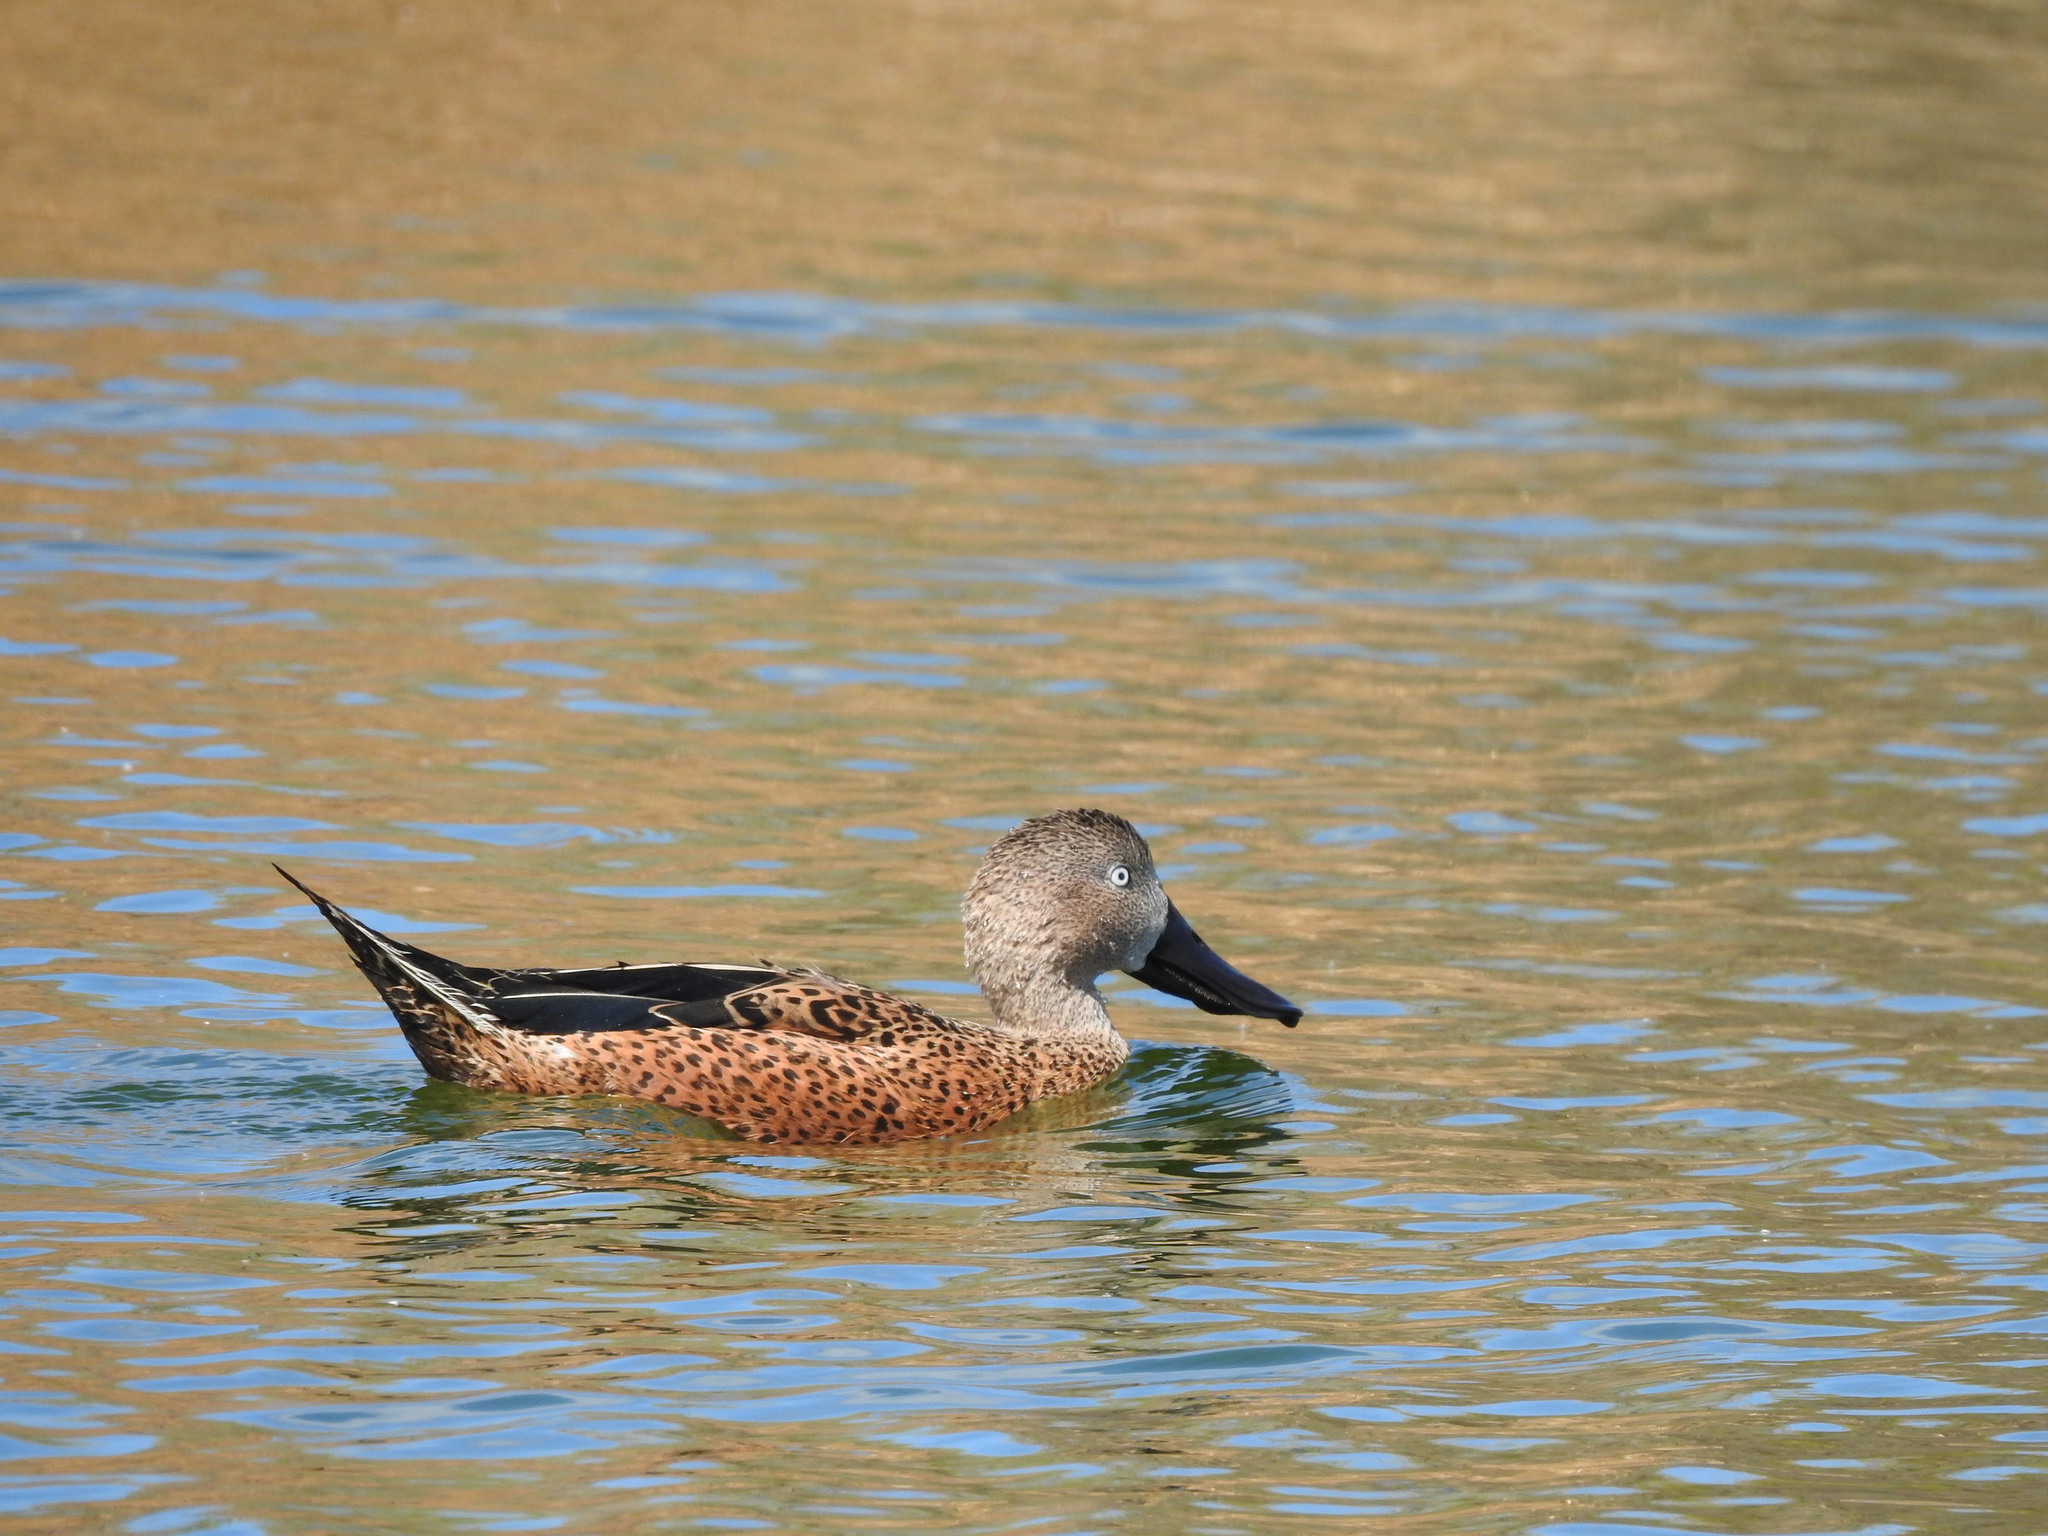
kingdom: Animalia
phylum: Chordata
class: Aves
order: Anseriformes
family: Anatidae
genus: Spatula
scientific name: Spatula platalea
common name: Red shoveler
